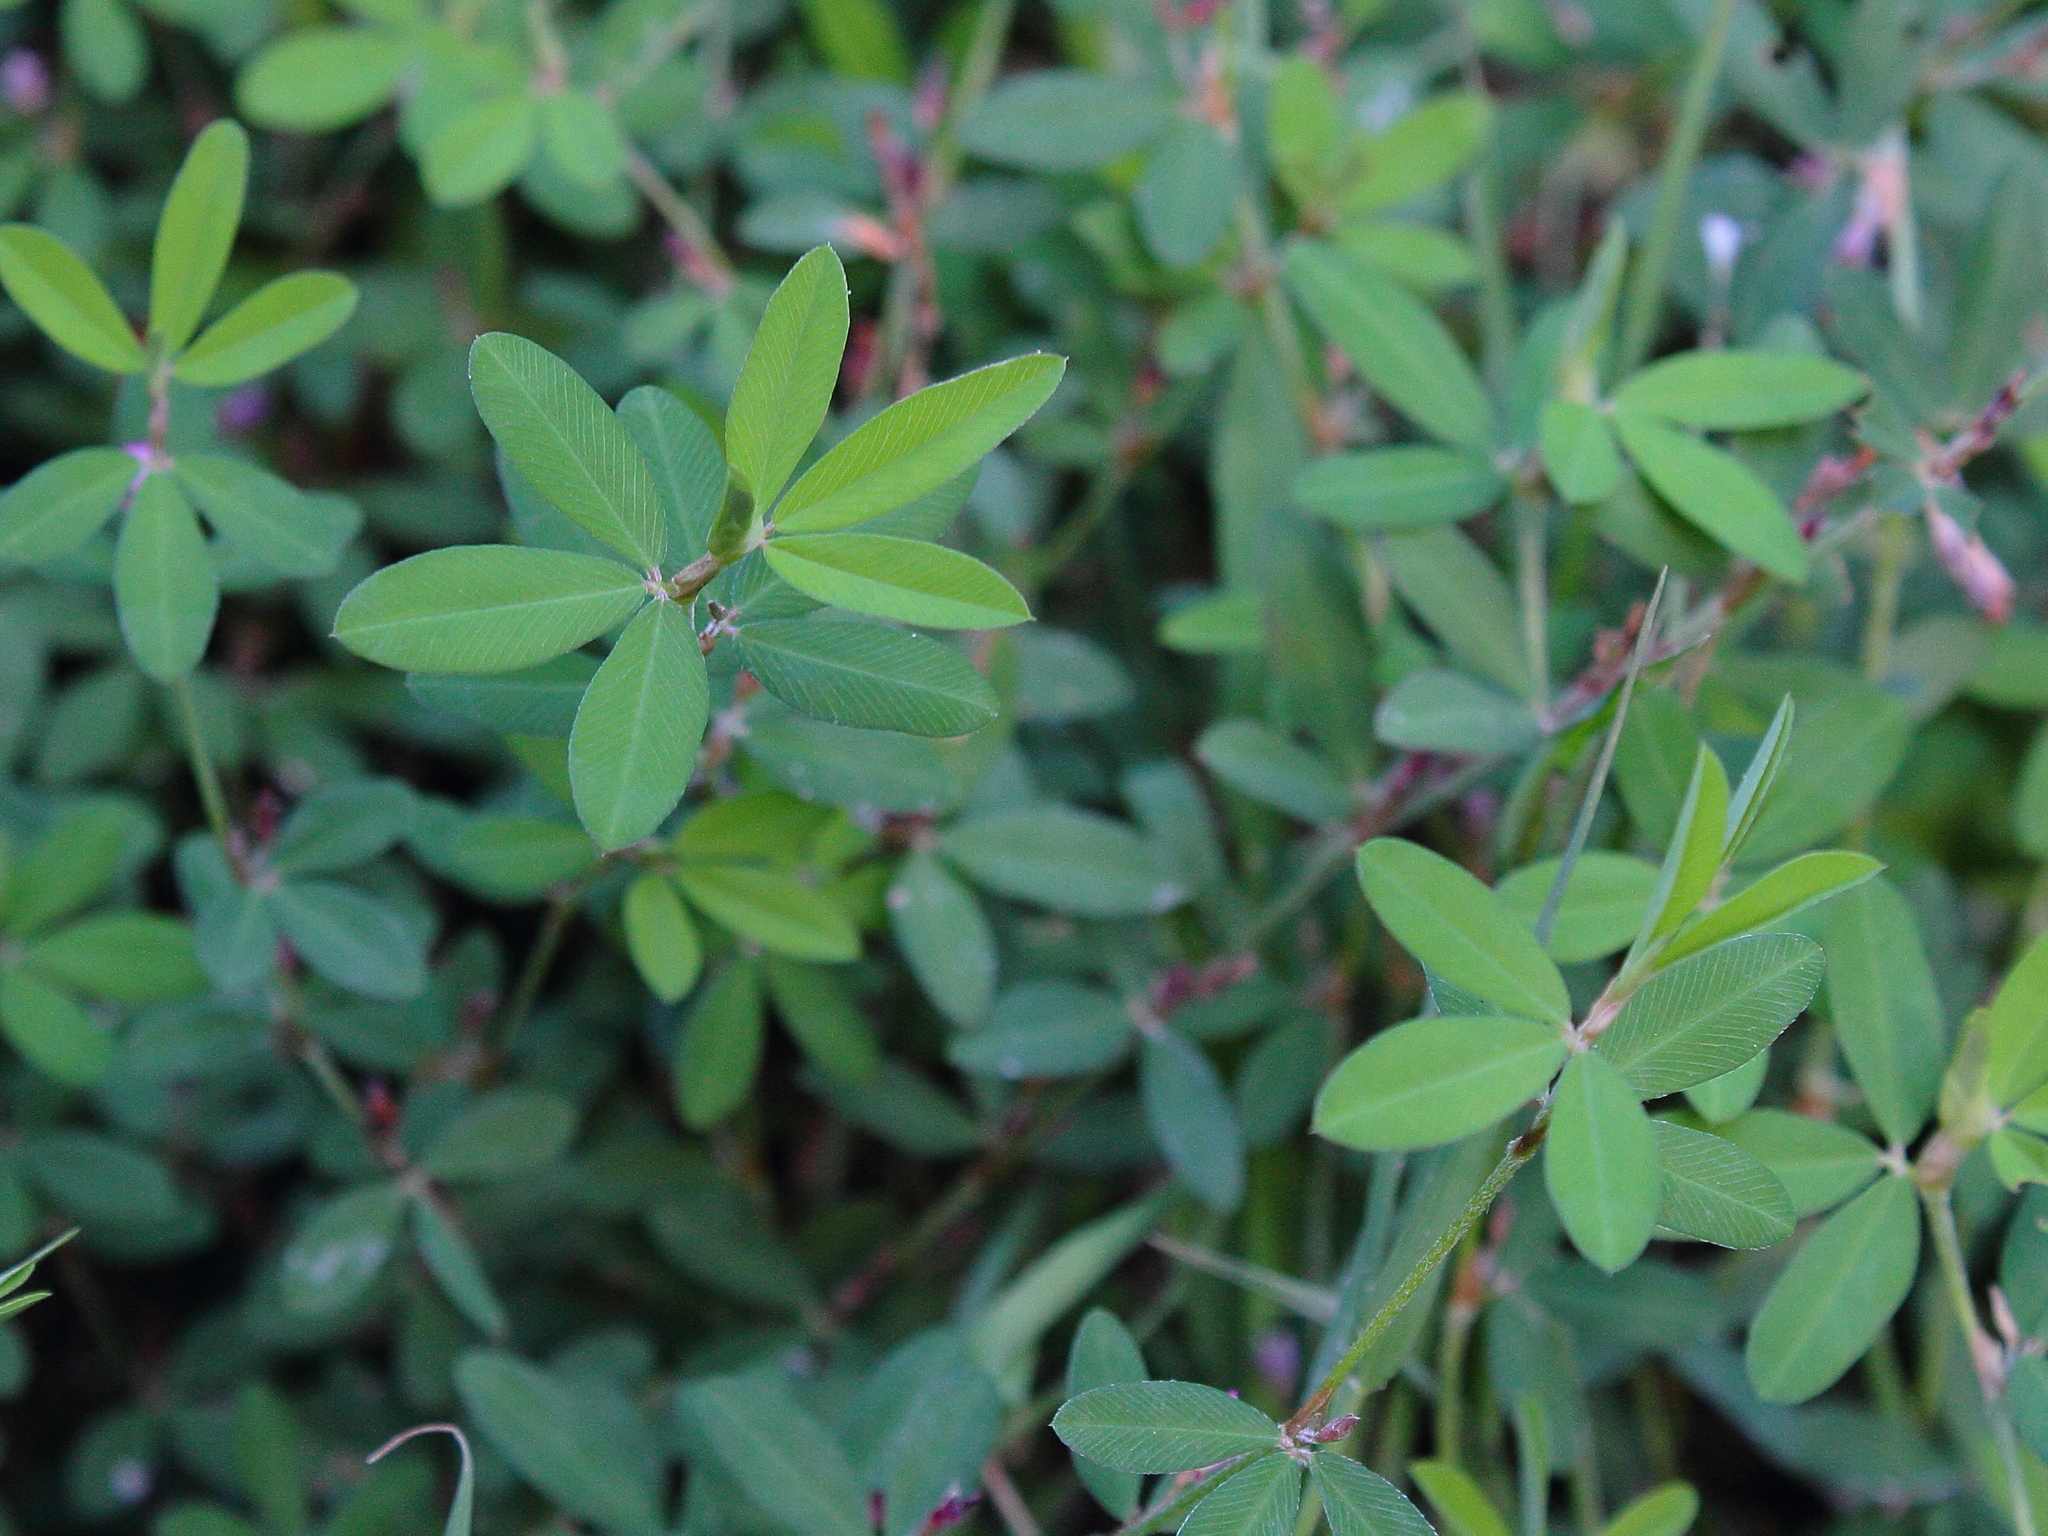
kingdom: Plantae
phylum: Tracheophyta
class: Magnoliopsida
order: Fabales
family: Fabaceae
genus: Kummerowia
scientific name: Kummerowia striata
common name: Japanese clover
